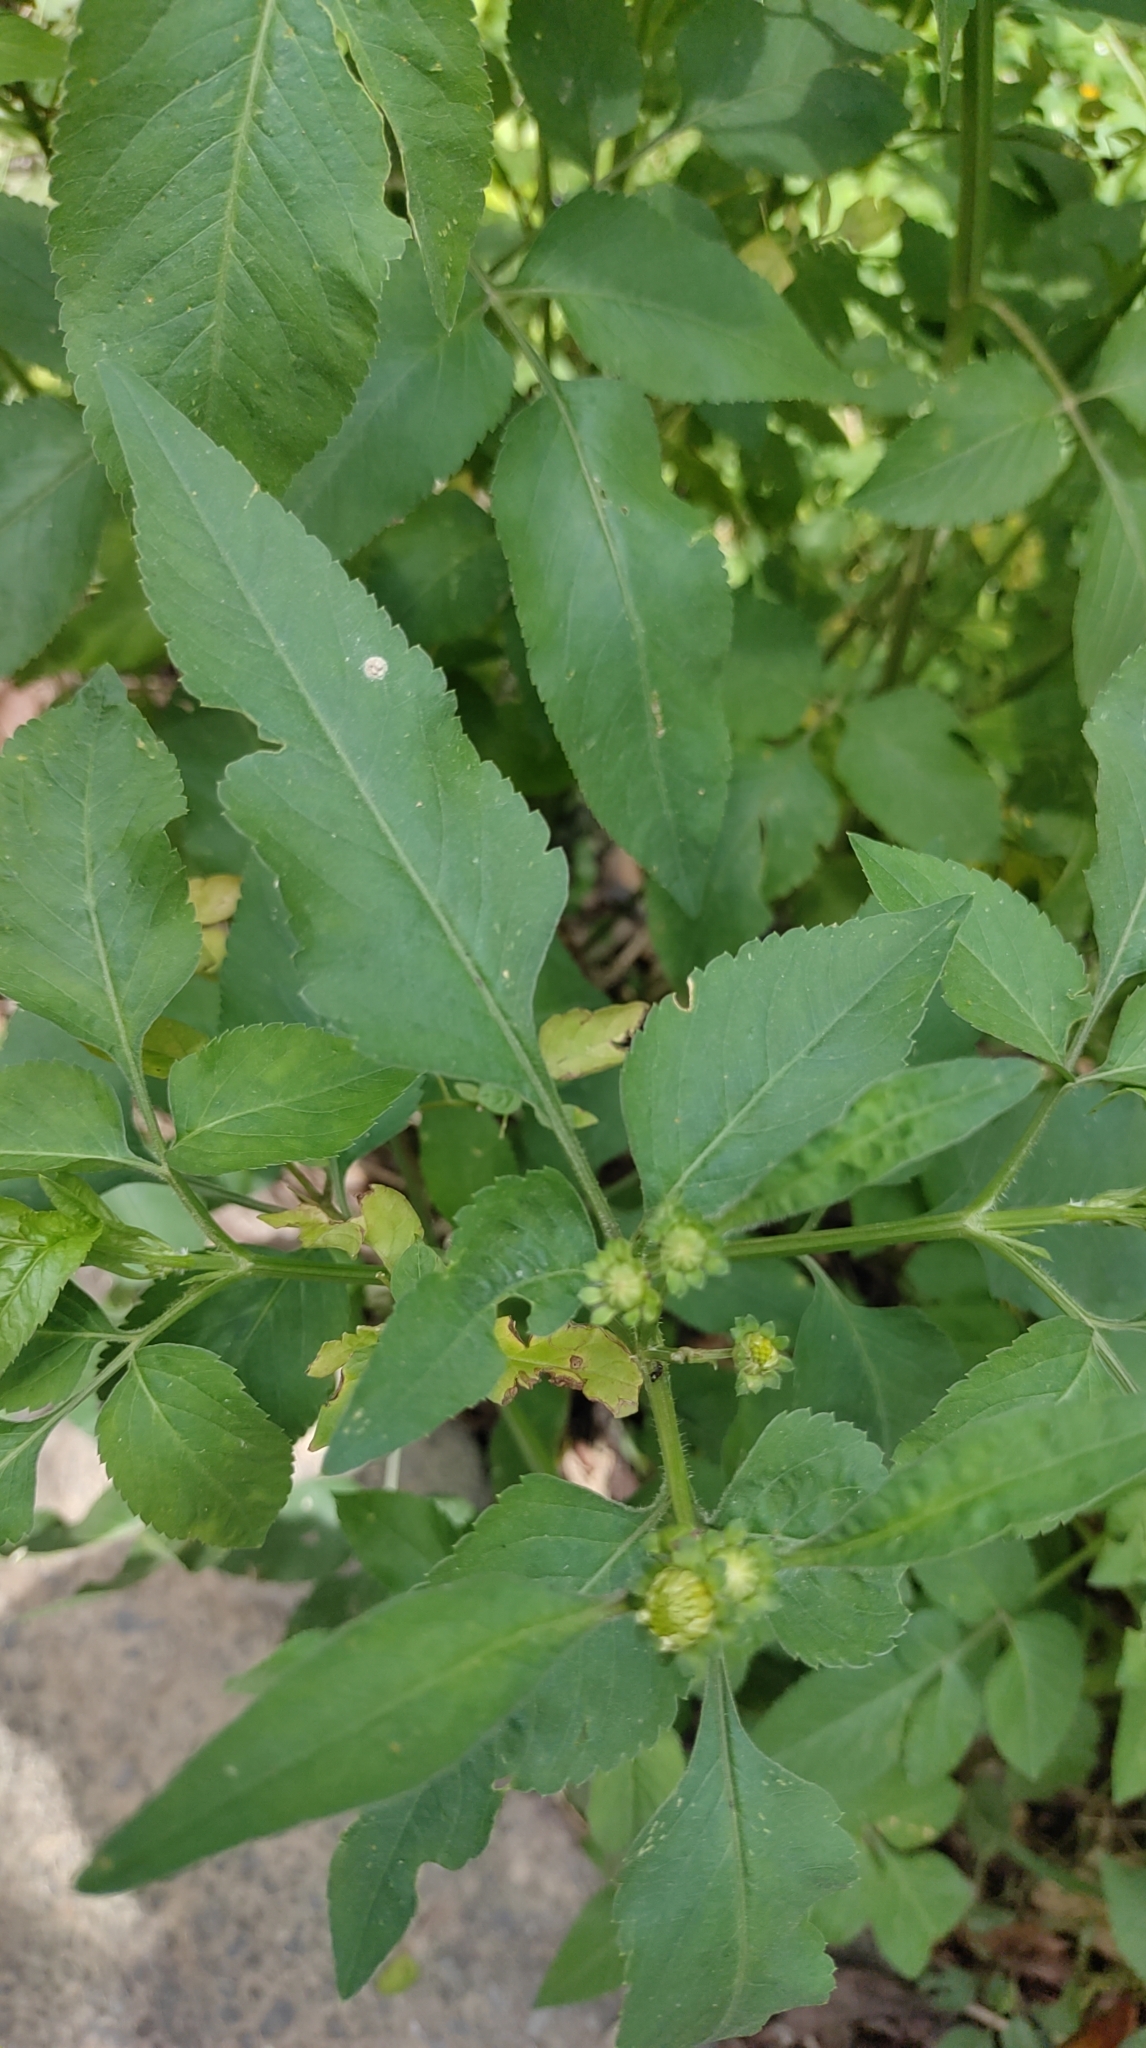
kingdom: Plantae
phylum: Tracheophyta
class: Magnoliopsida
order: Asterales
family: Asteraceae
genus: Bidens
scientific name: Bidens alba
